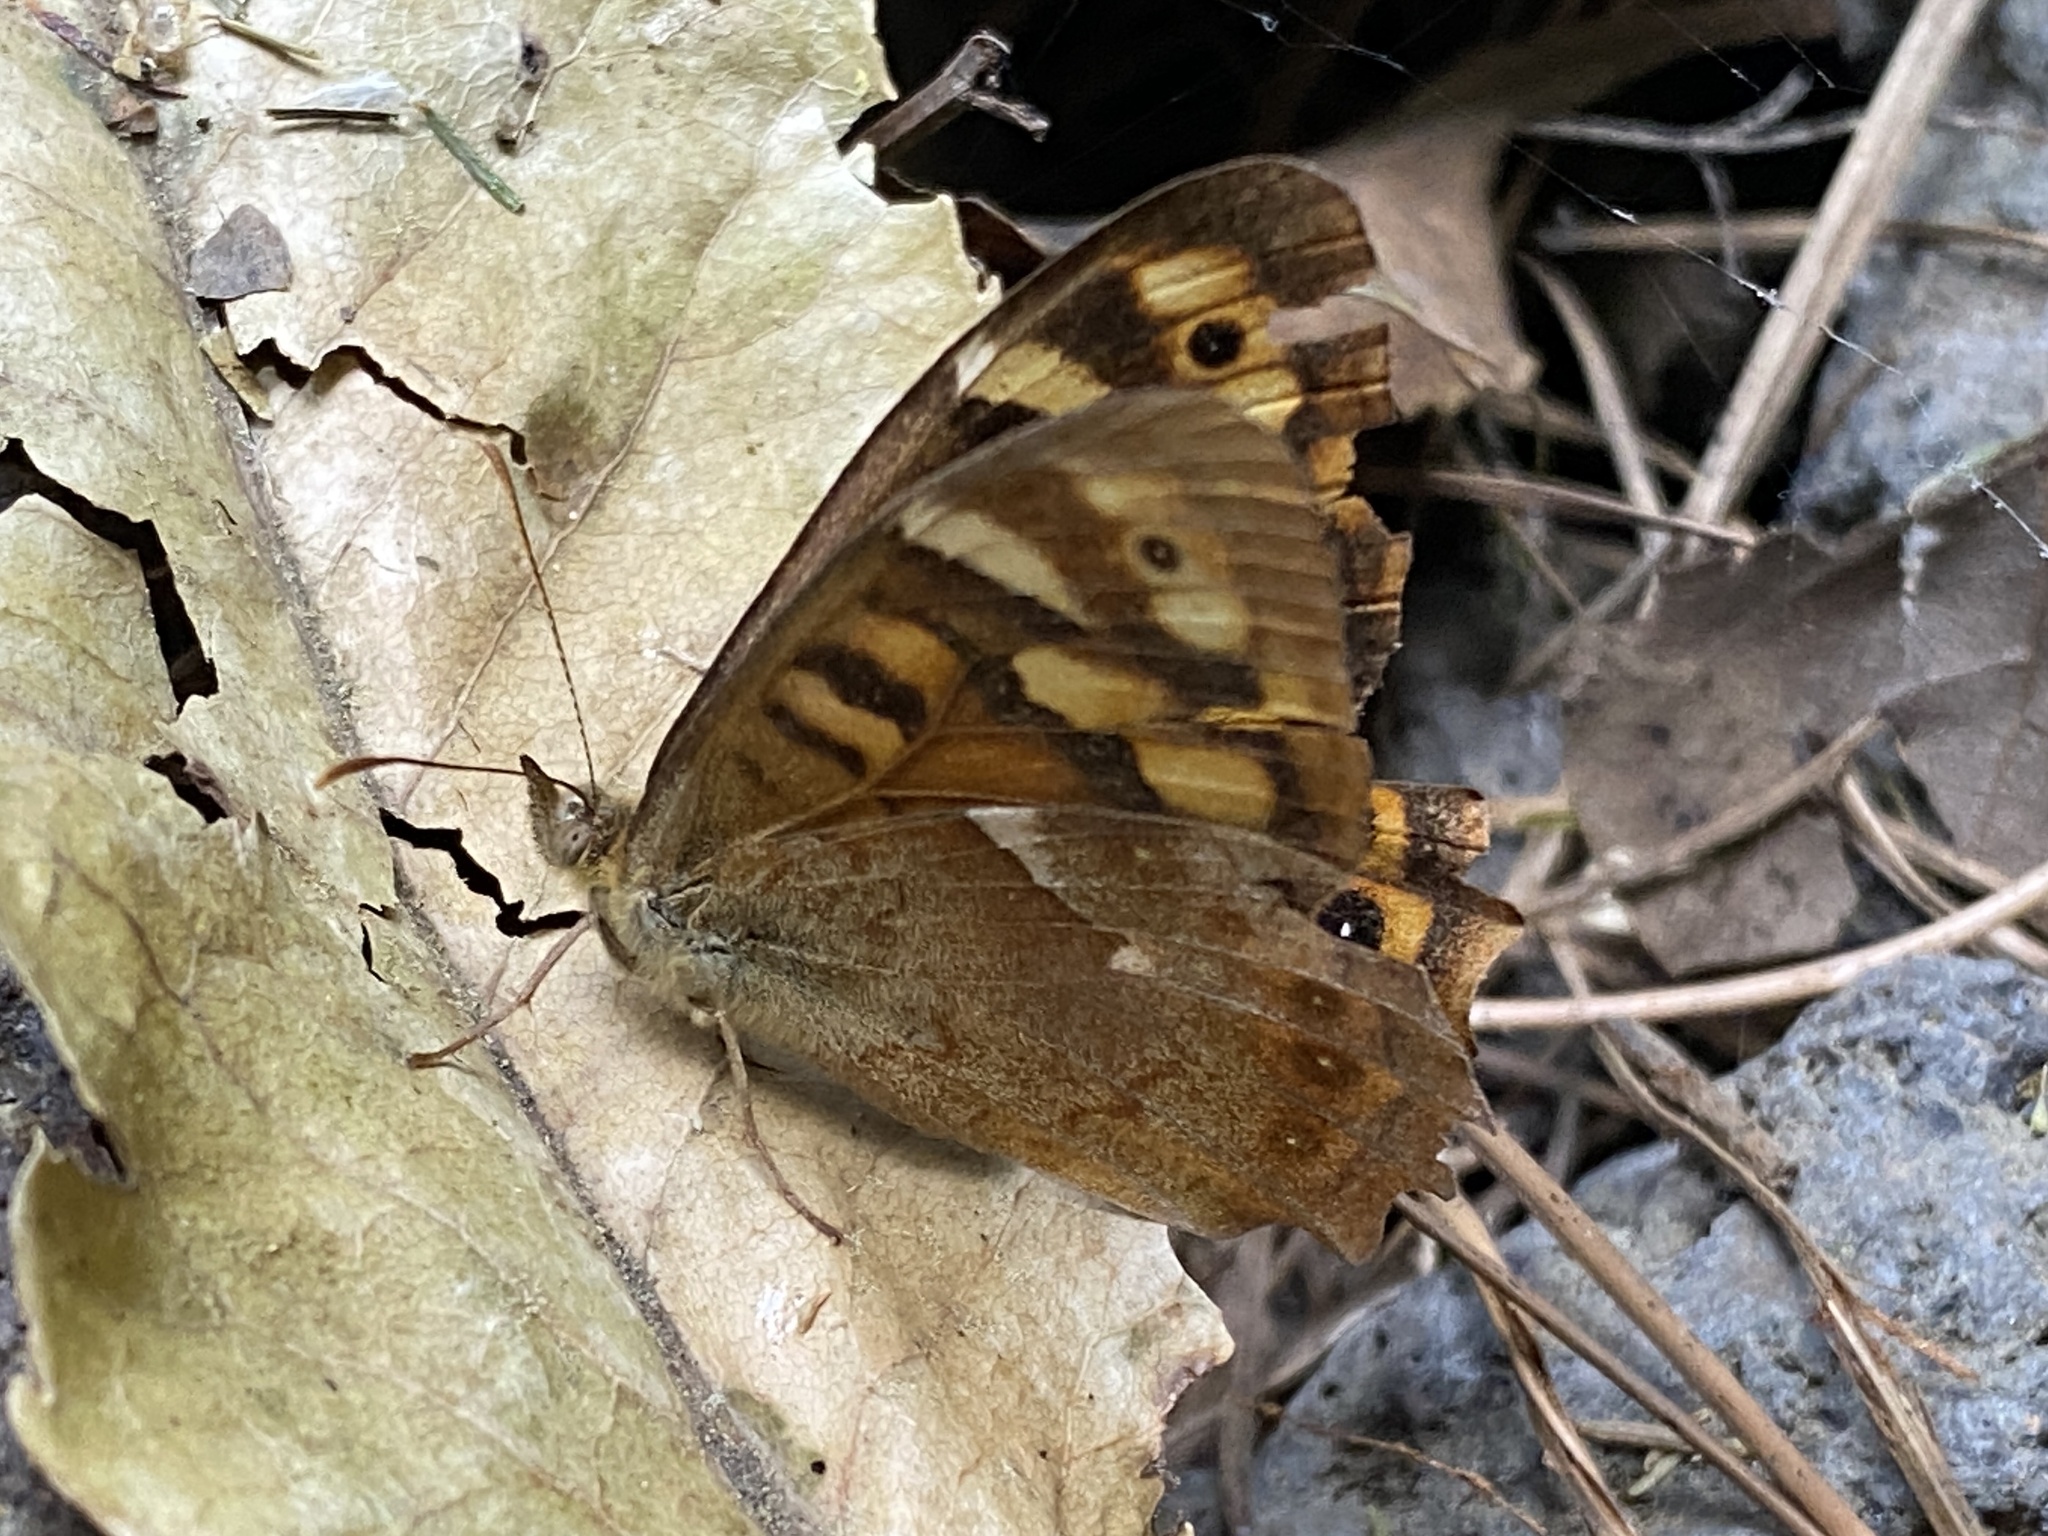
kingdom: Animalia
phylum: Arthropoda
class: Insecta
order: Lepidoptera
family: Nymphalidae
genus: Pararge
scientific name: Pararge aegeria
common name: Speckled wood
